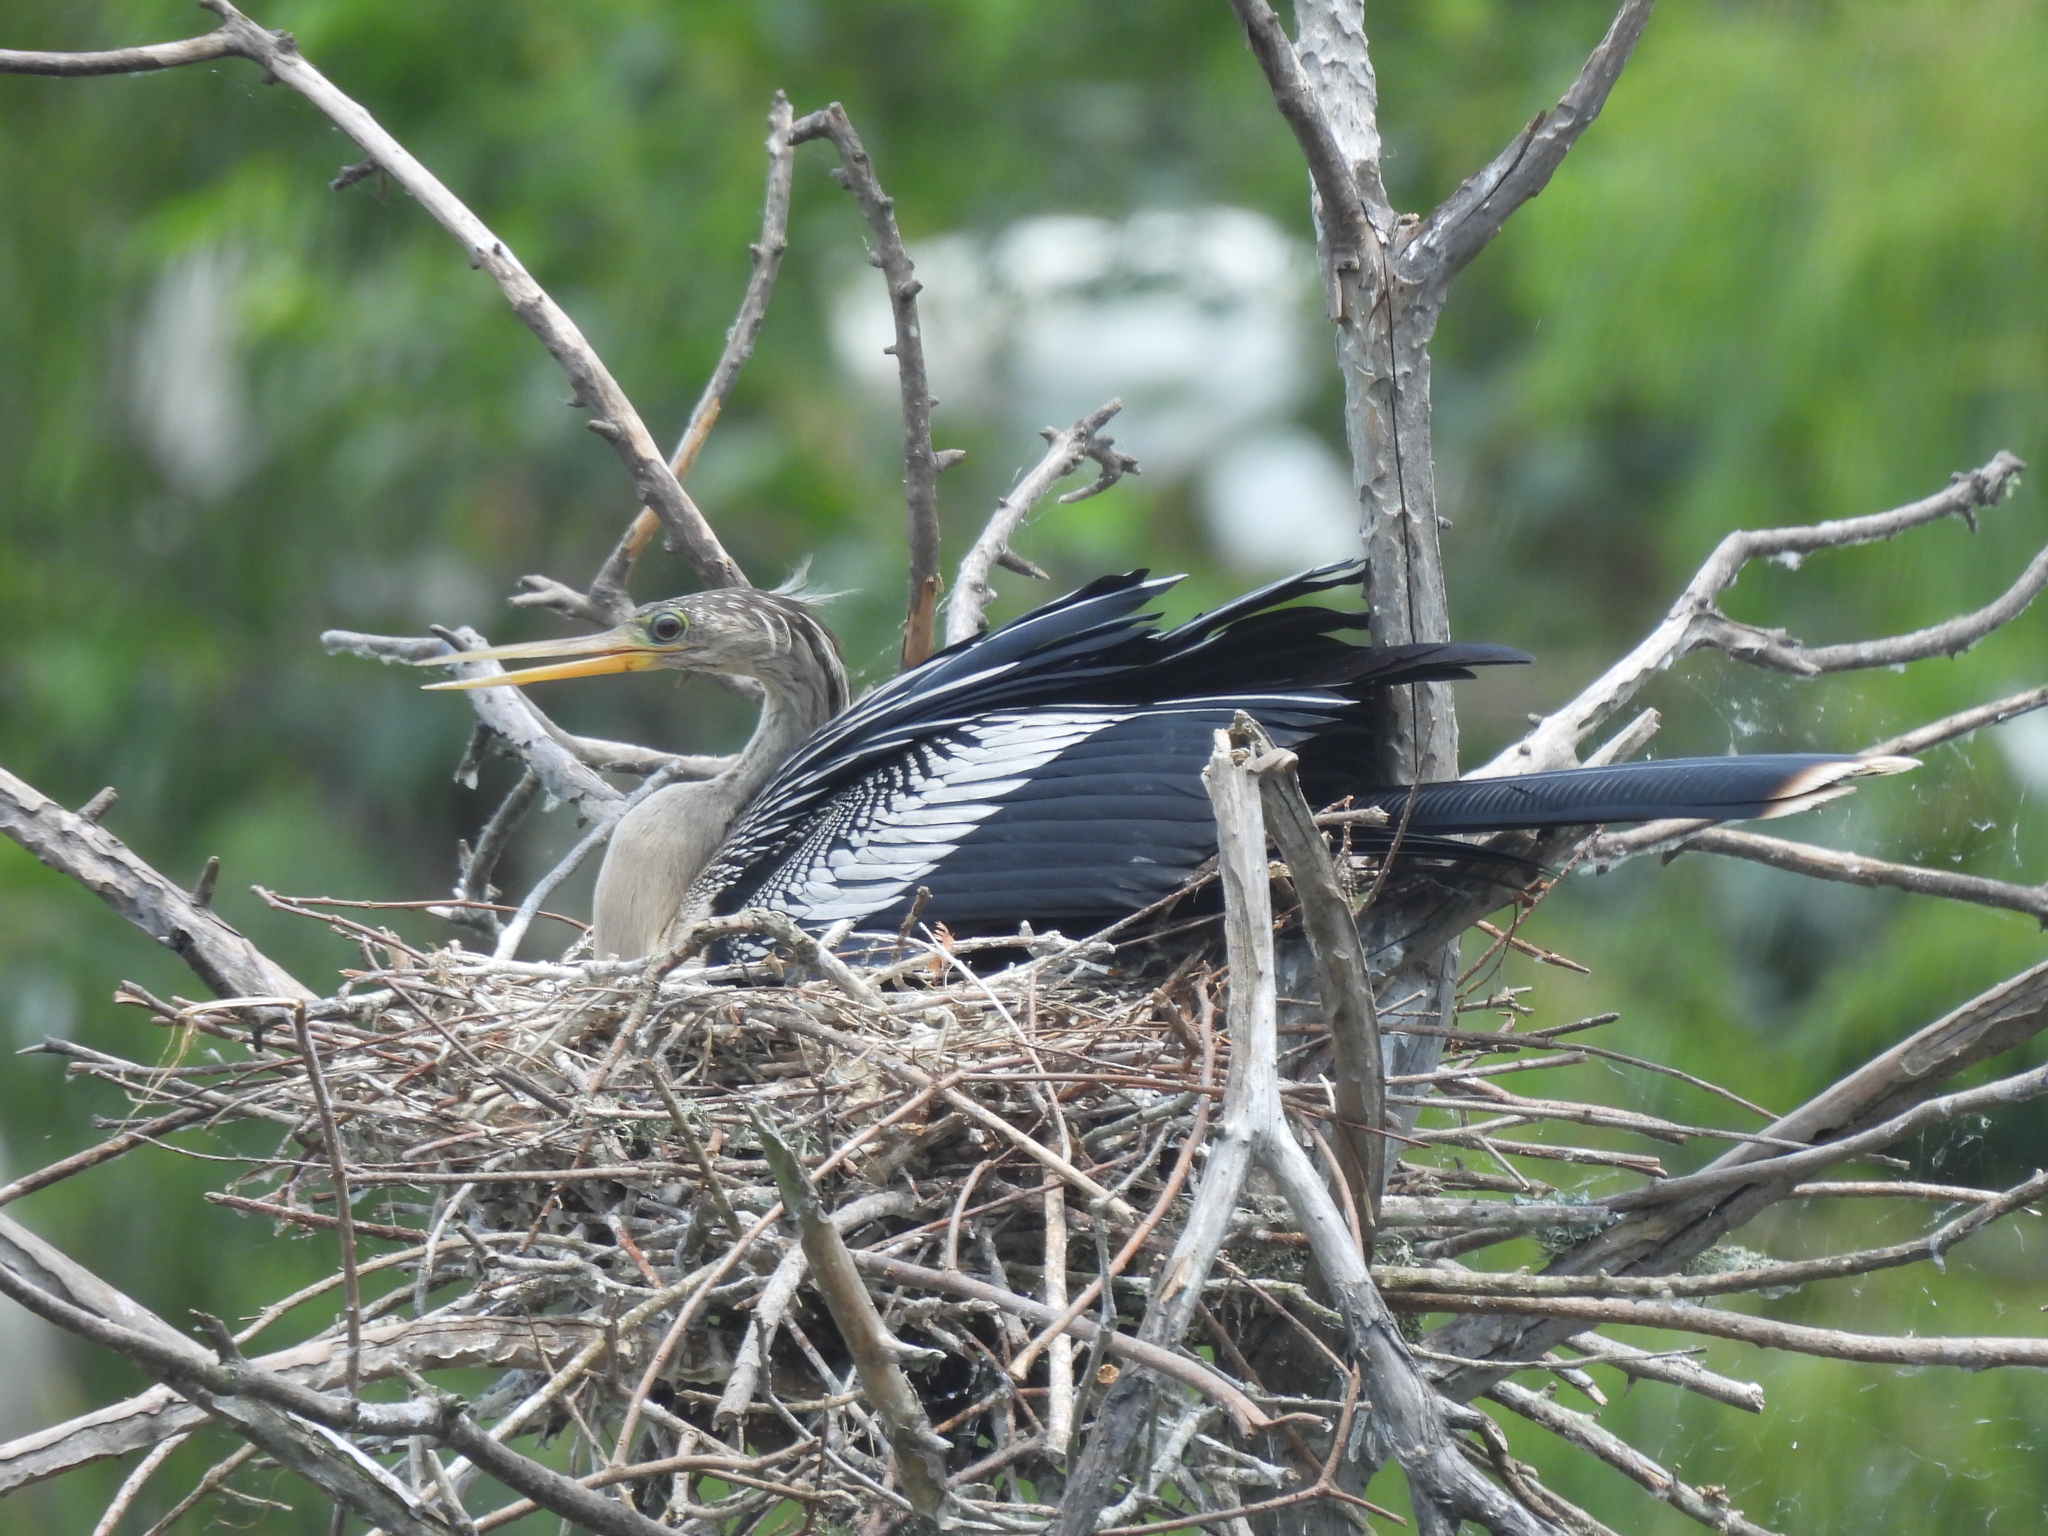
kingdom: Animalia
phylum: Chordata
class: Aves
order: Suliformes
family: Anhingidae
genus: Anhinga
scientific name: Anhinga anhinga
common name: Anhinga
